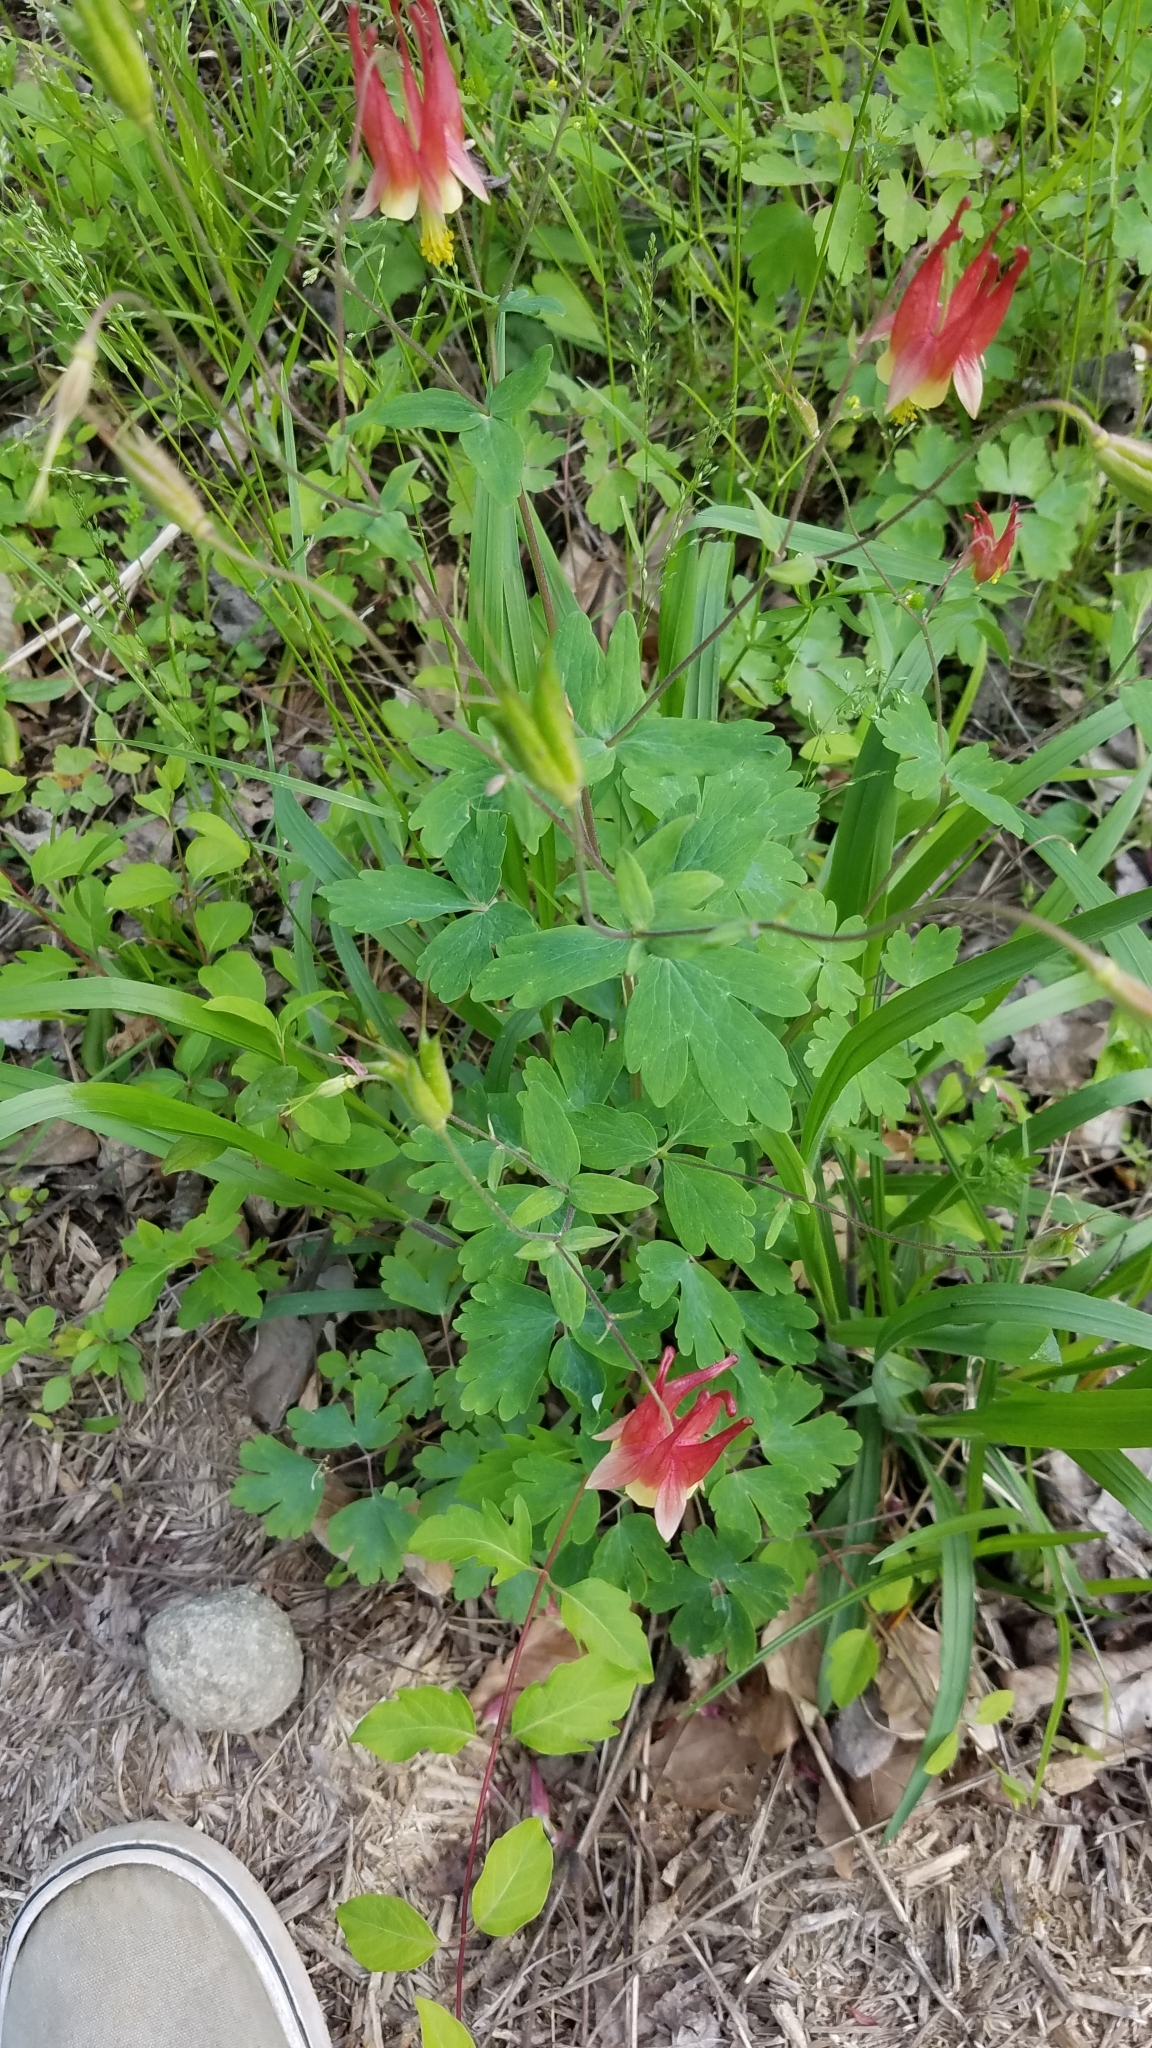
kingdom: Plantae
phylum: Tracheophyta
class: Magnoliopsida
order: Ranunculales
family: Ranunculaceae
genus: Aquilegia
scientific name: Aquilegia canadensis
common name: American columbine
